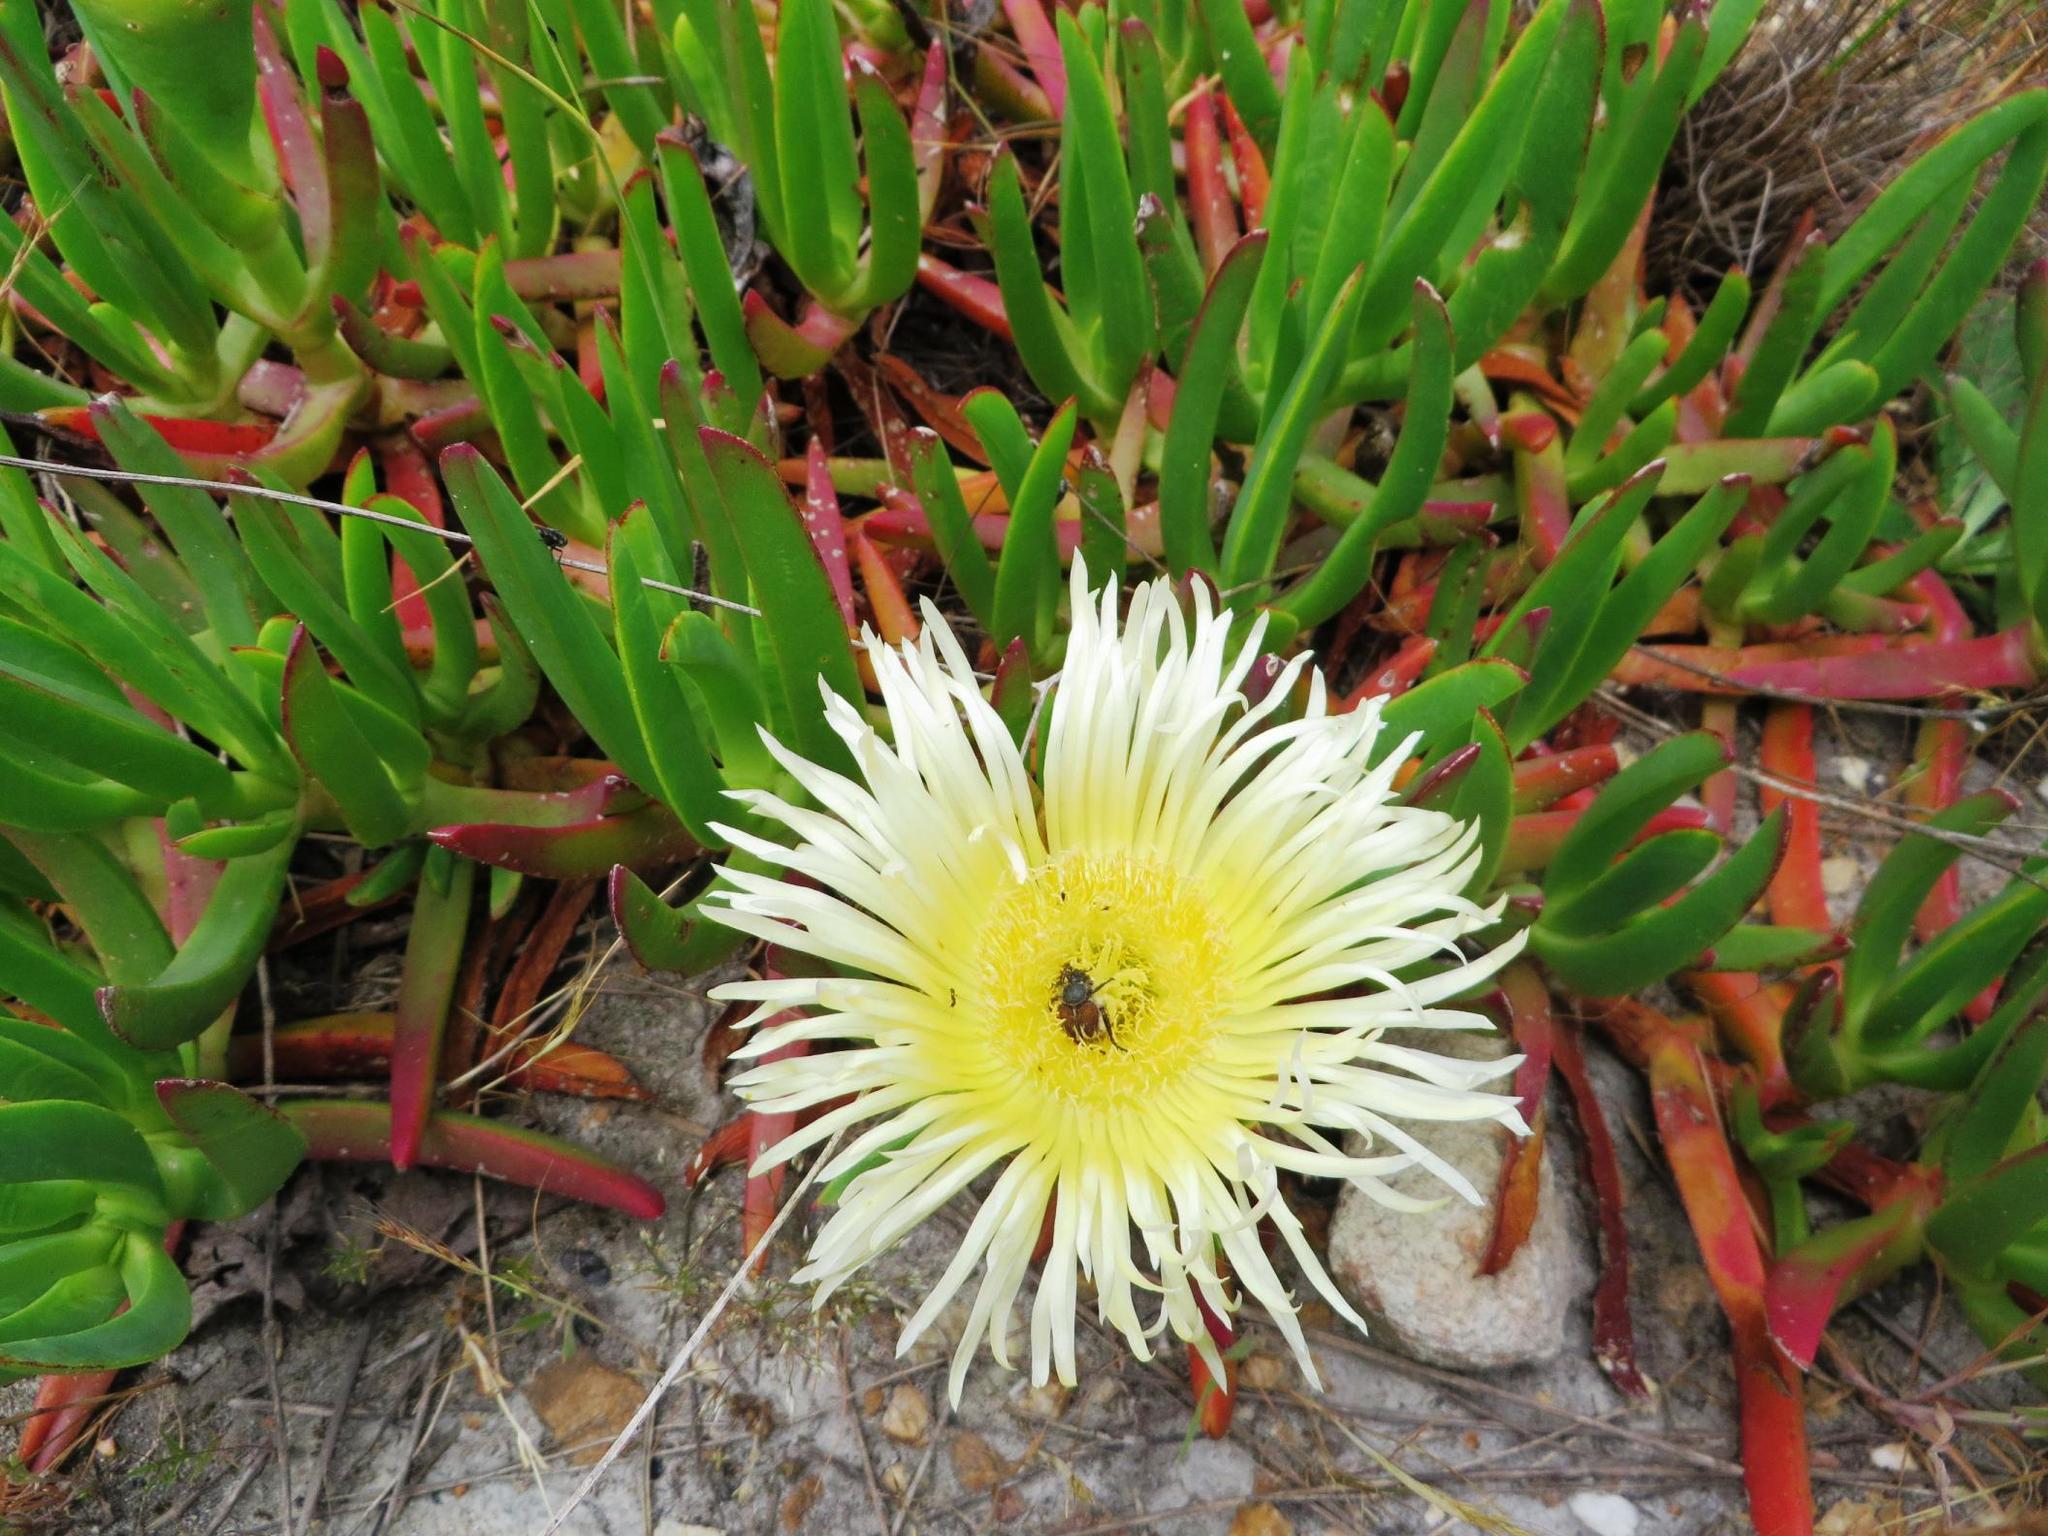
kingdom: Plantae
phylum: Tracheophyta
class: Magnoliopsida
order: Caryophyllales
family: Aizoaceae
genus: Carpobrotus
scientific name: Carpobrotus edulis
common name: Hottentot-fig
